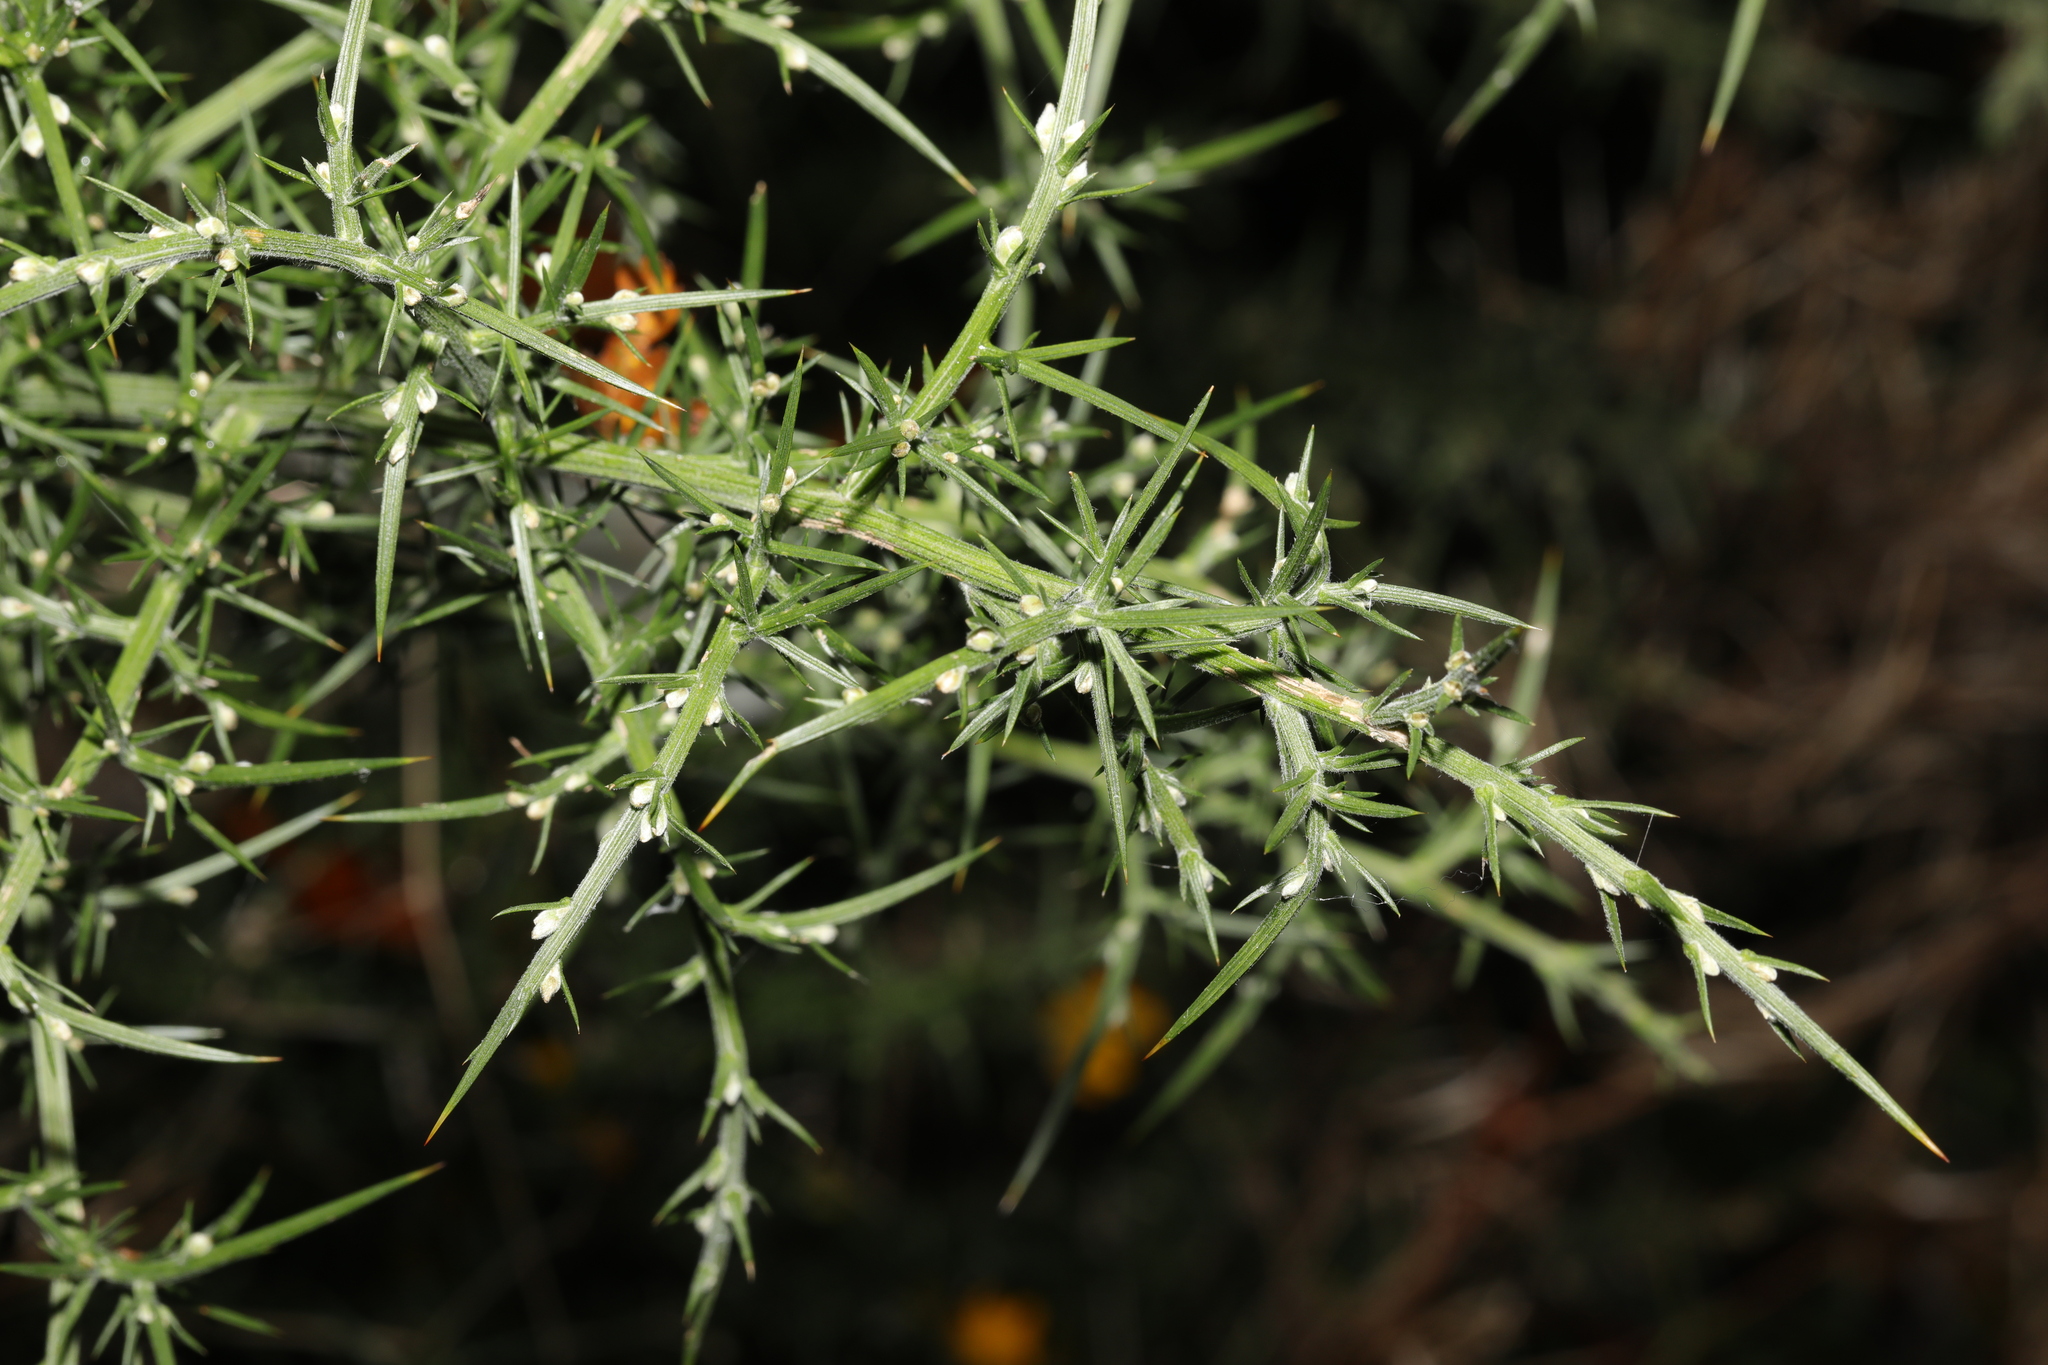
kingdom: Plantae
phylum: Tracheophyta
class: Magnoliopsida
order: Fabales
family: Fabaceae
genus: Ulex
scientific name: Ulex europaeus
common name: Common gorse
